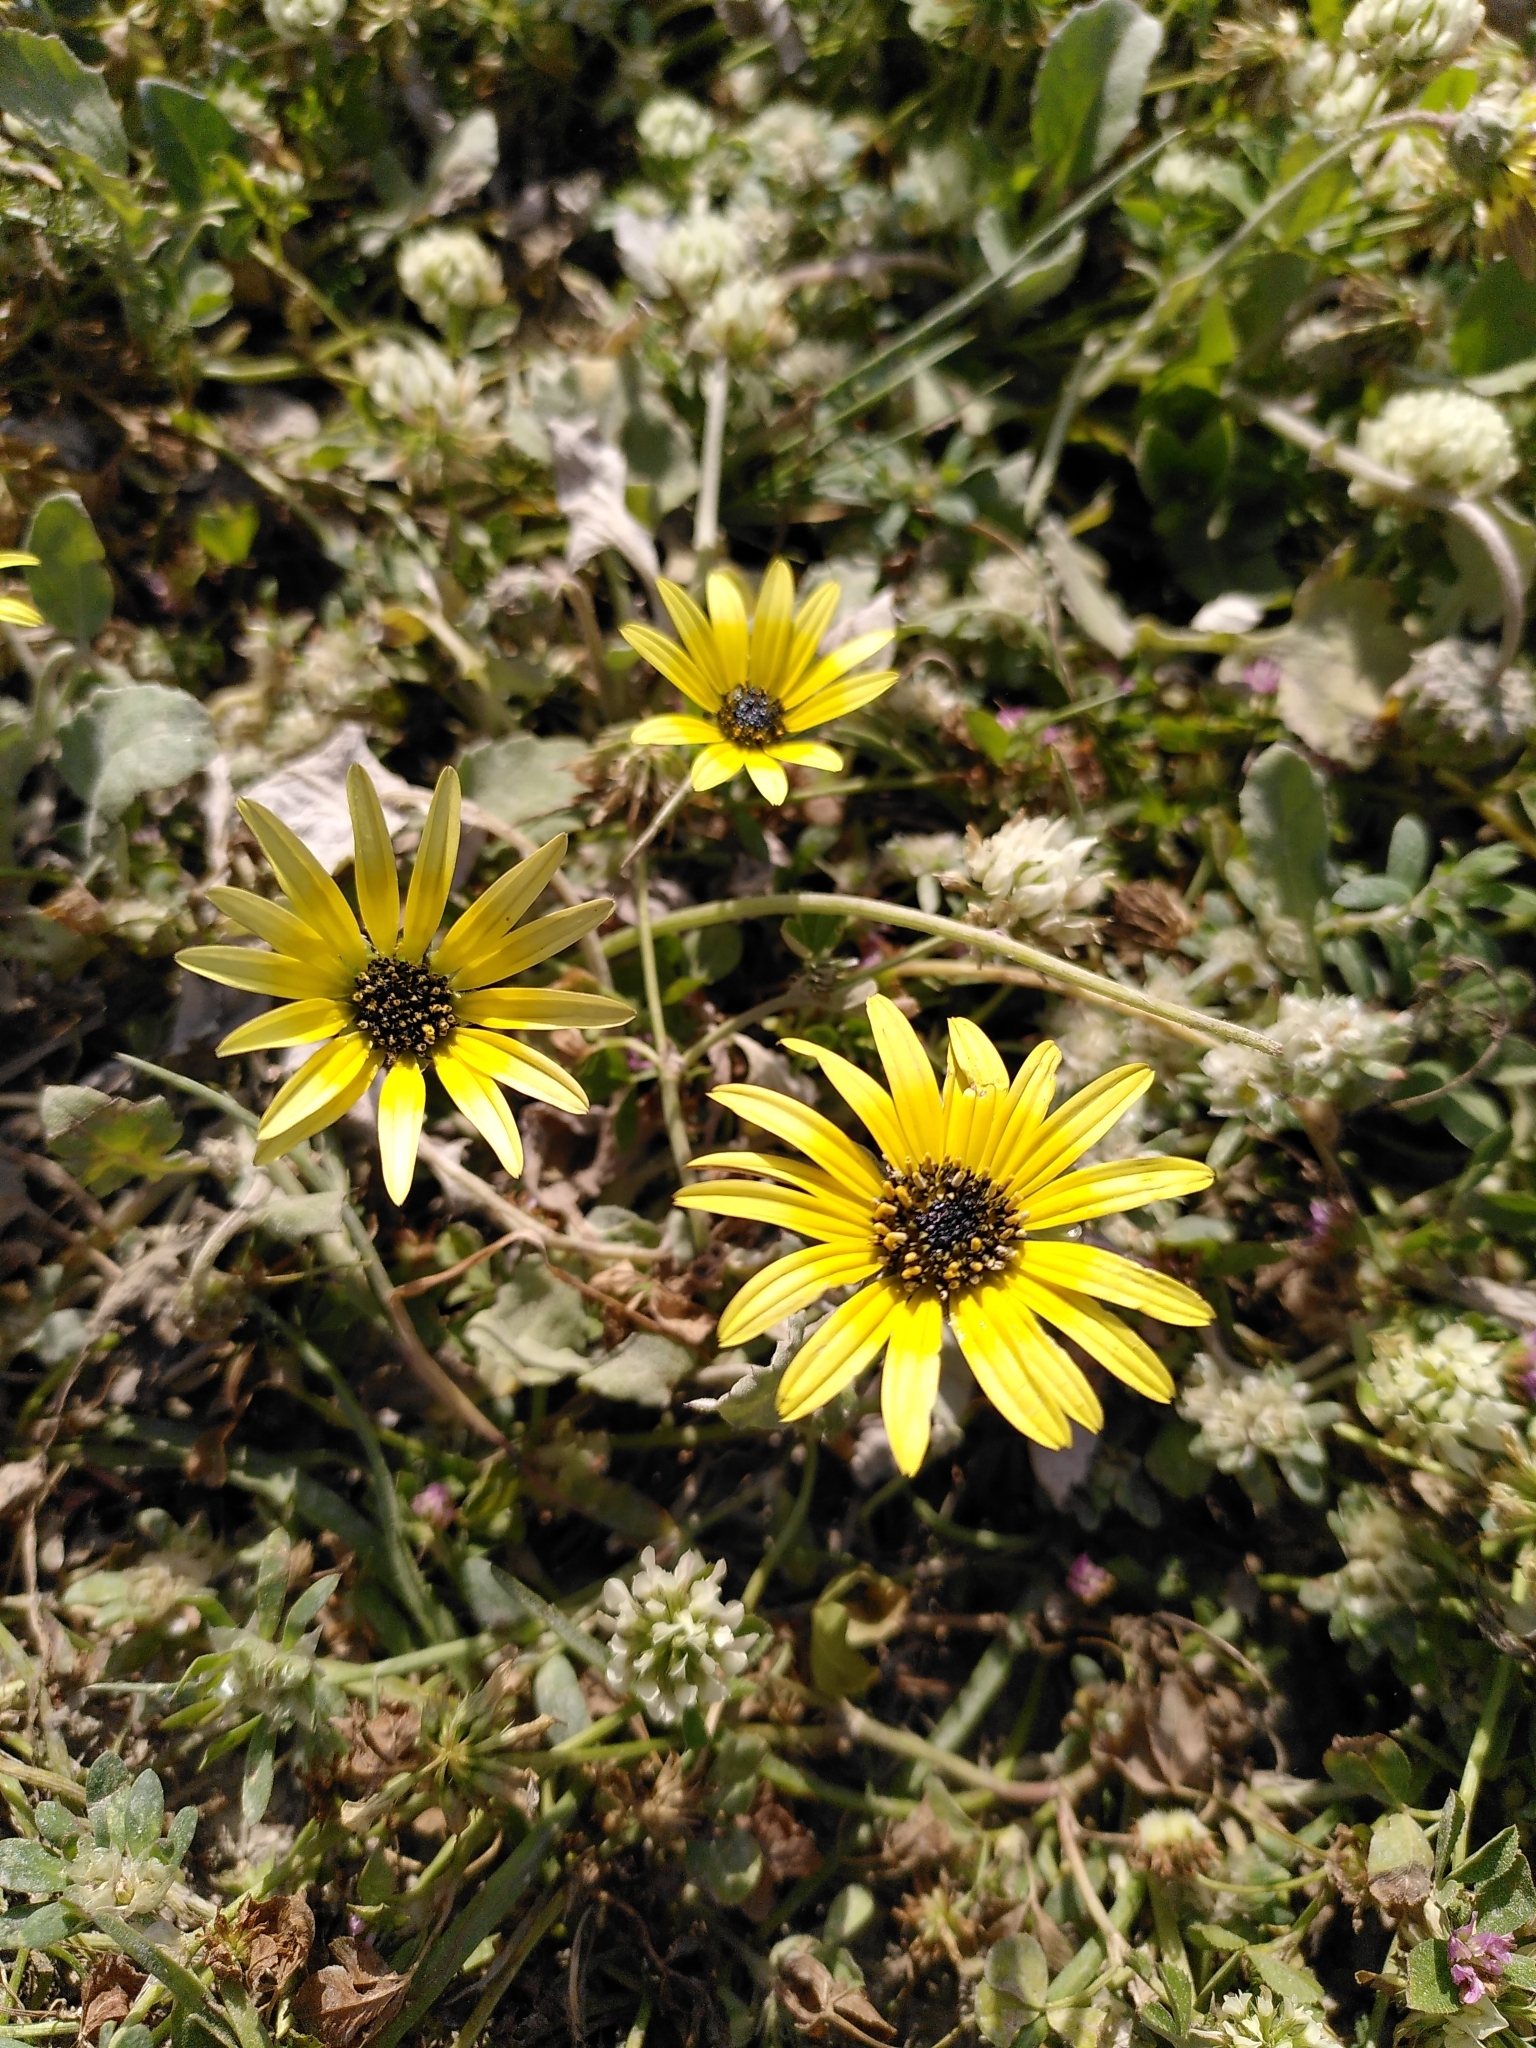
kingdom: Plantae
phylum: Tracheophyta
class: Magnoliopsida
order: Asterales
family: Asteraceae
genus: Arctotheca
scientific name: Arctotheca calendula
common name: Capeweed
